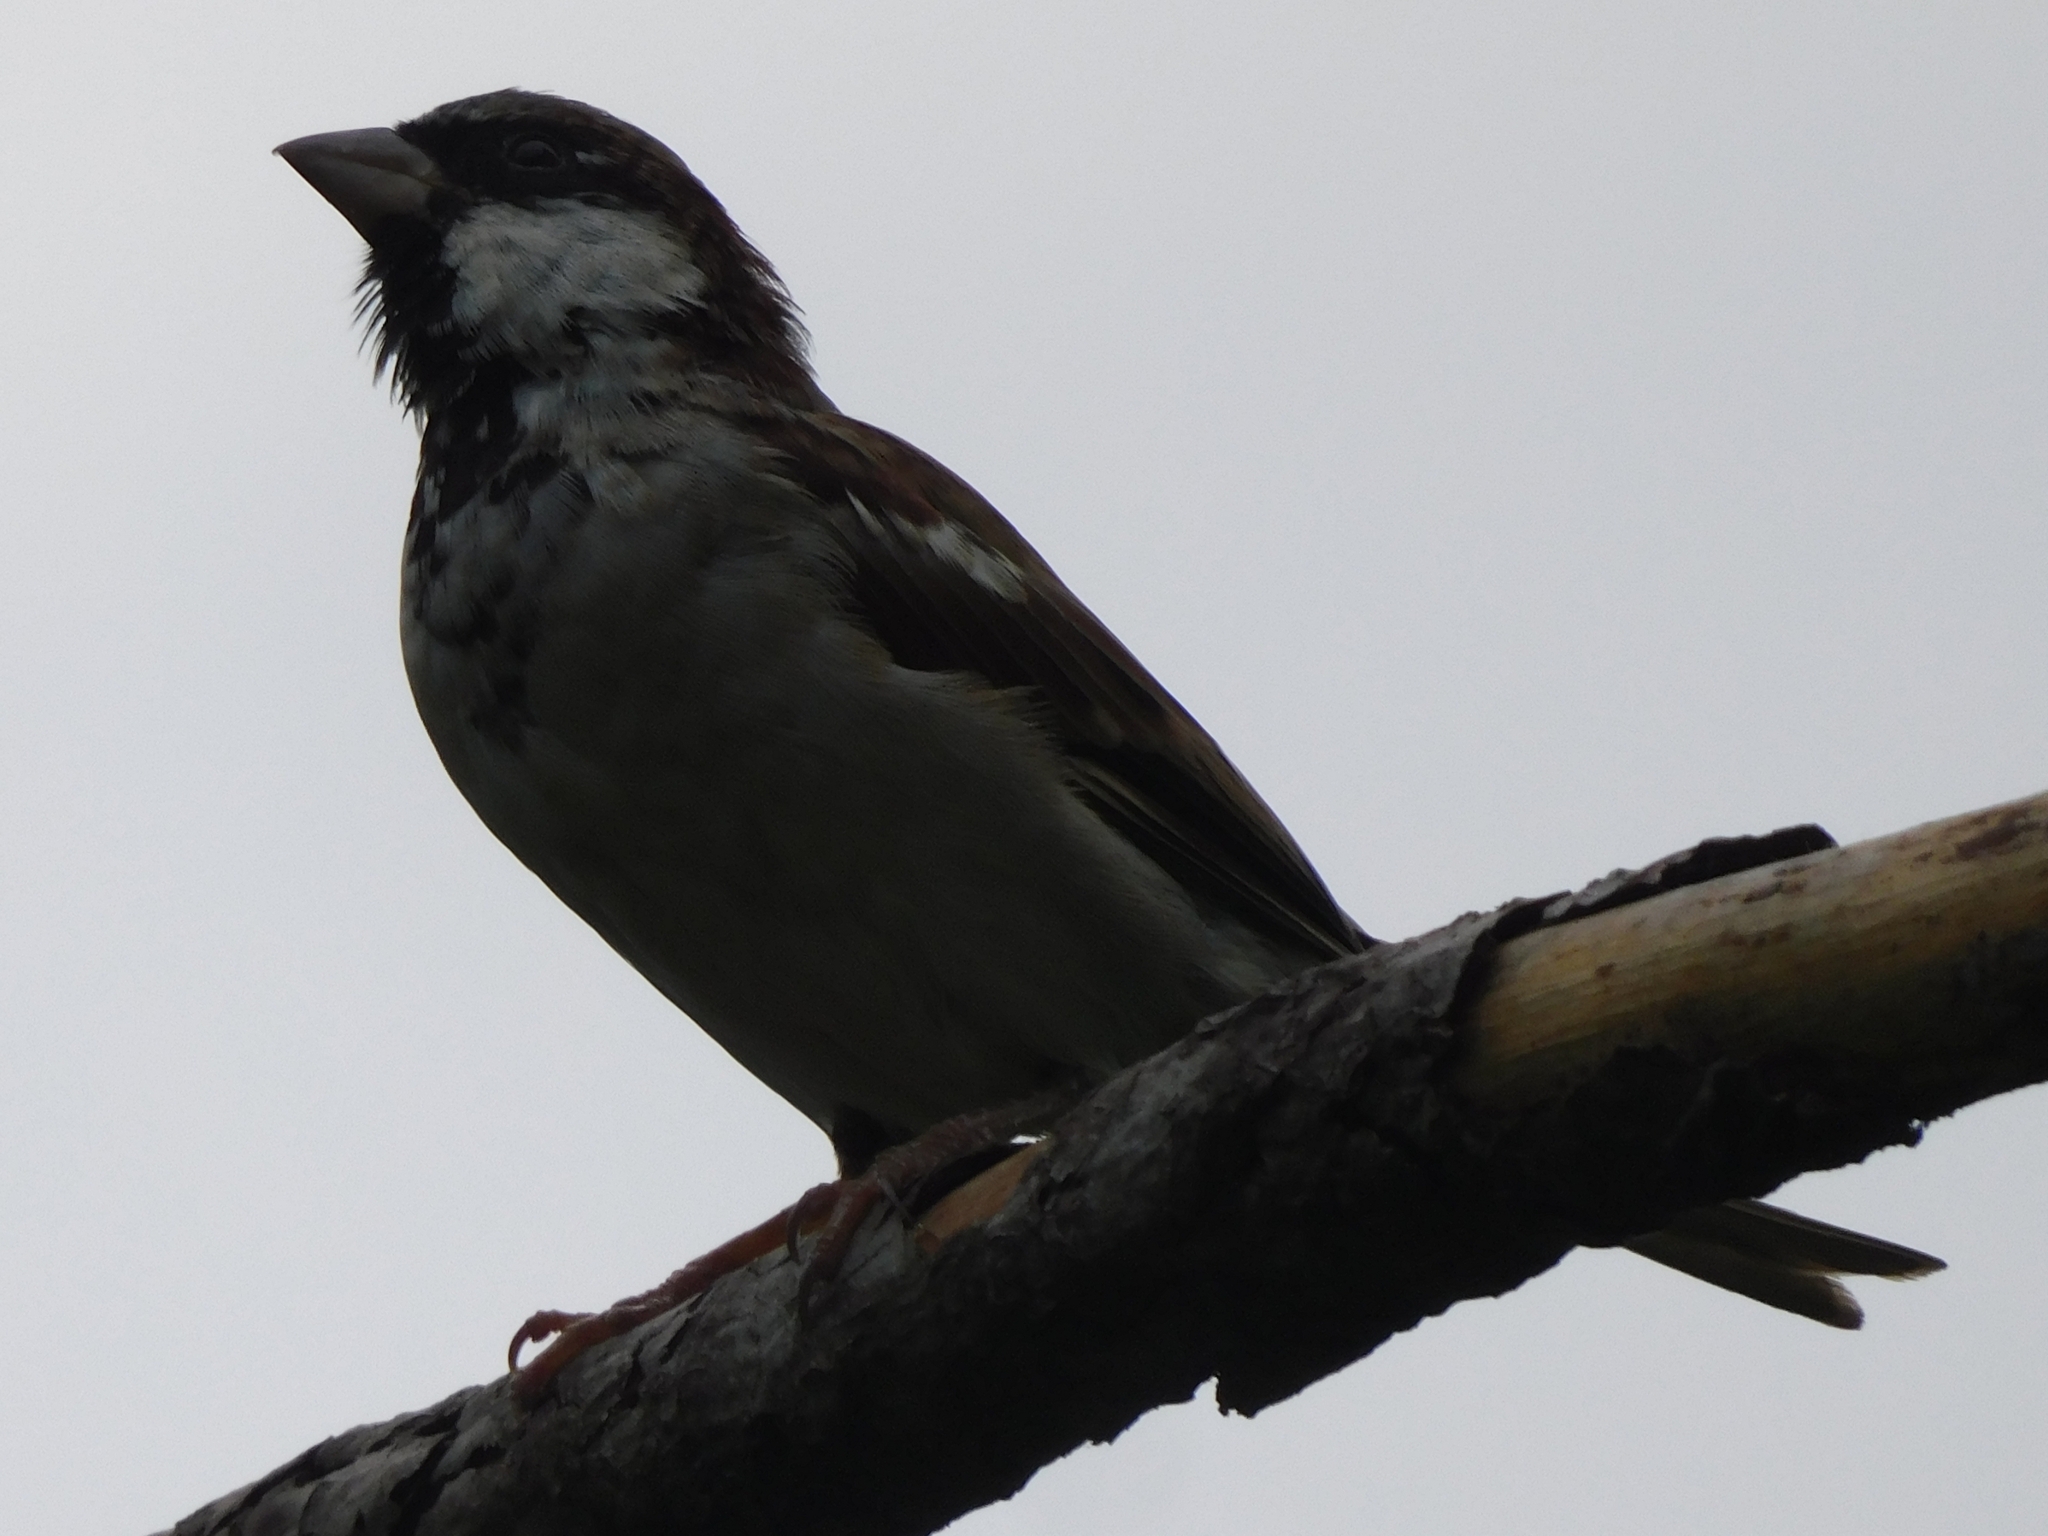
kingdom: Animalia
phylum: Chordata
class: Aves
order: Passeriformes
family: Passeridae
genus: Passer
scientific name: Passer domesticus
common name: House sparrow
